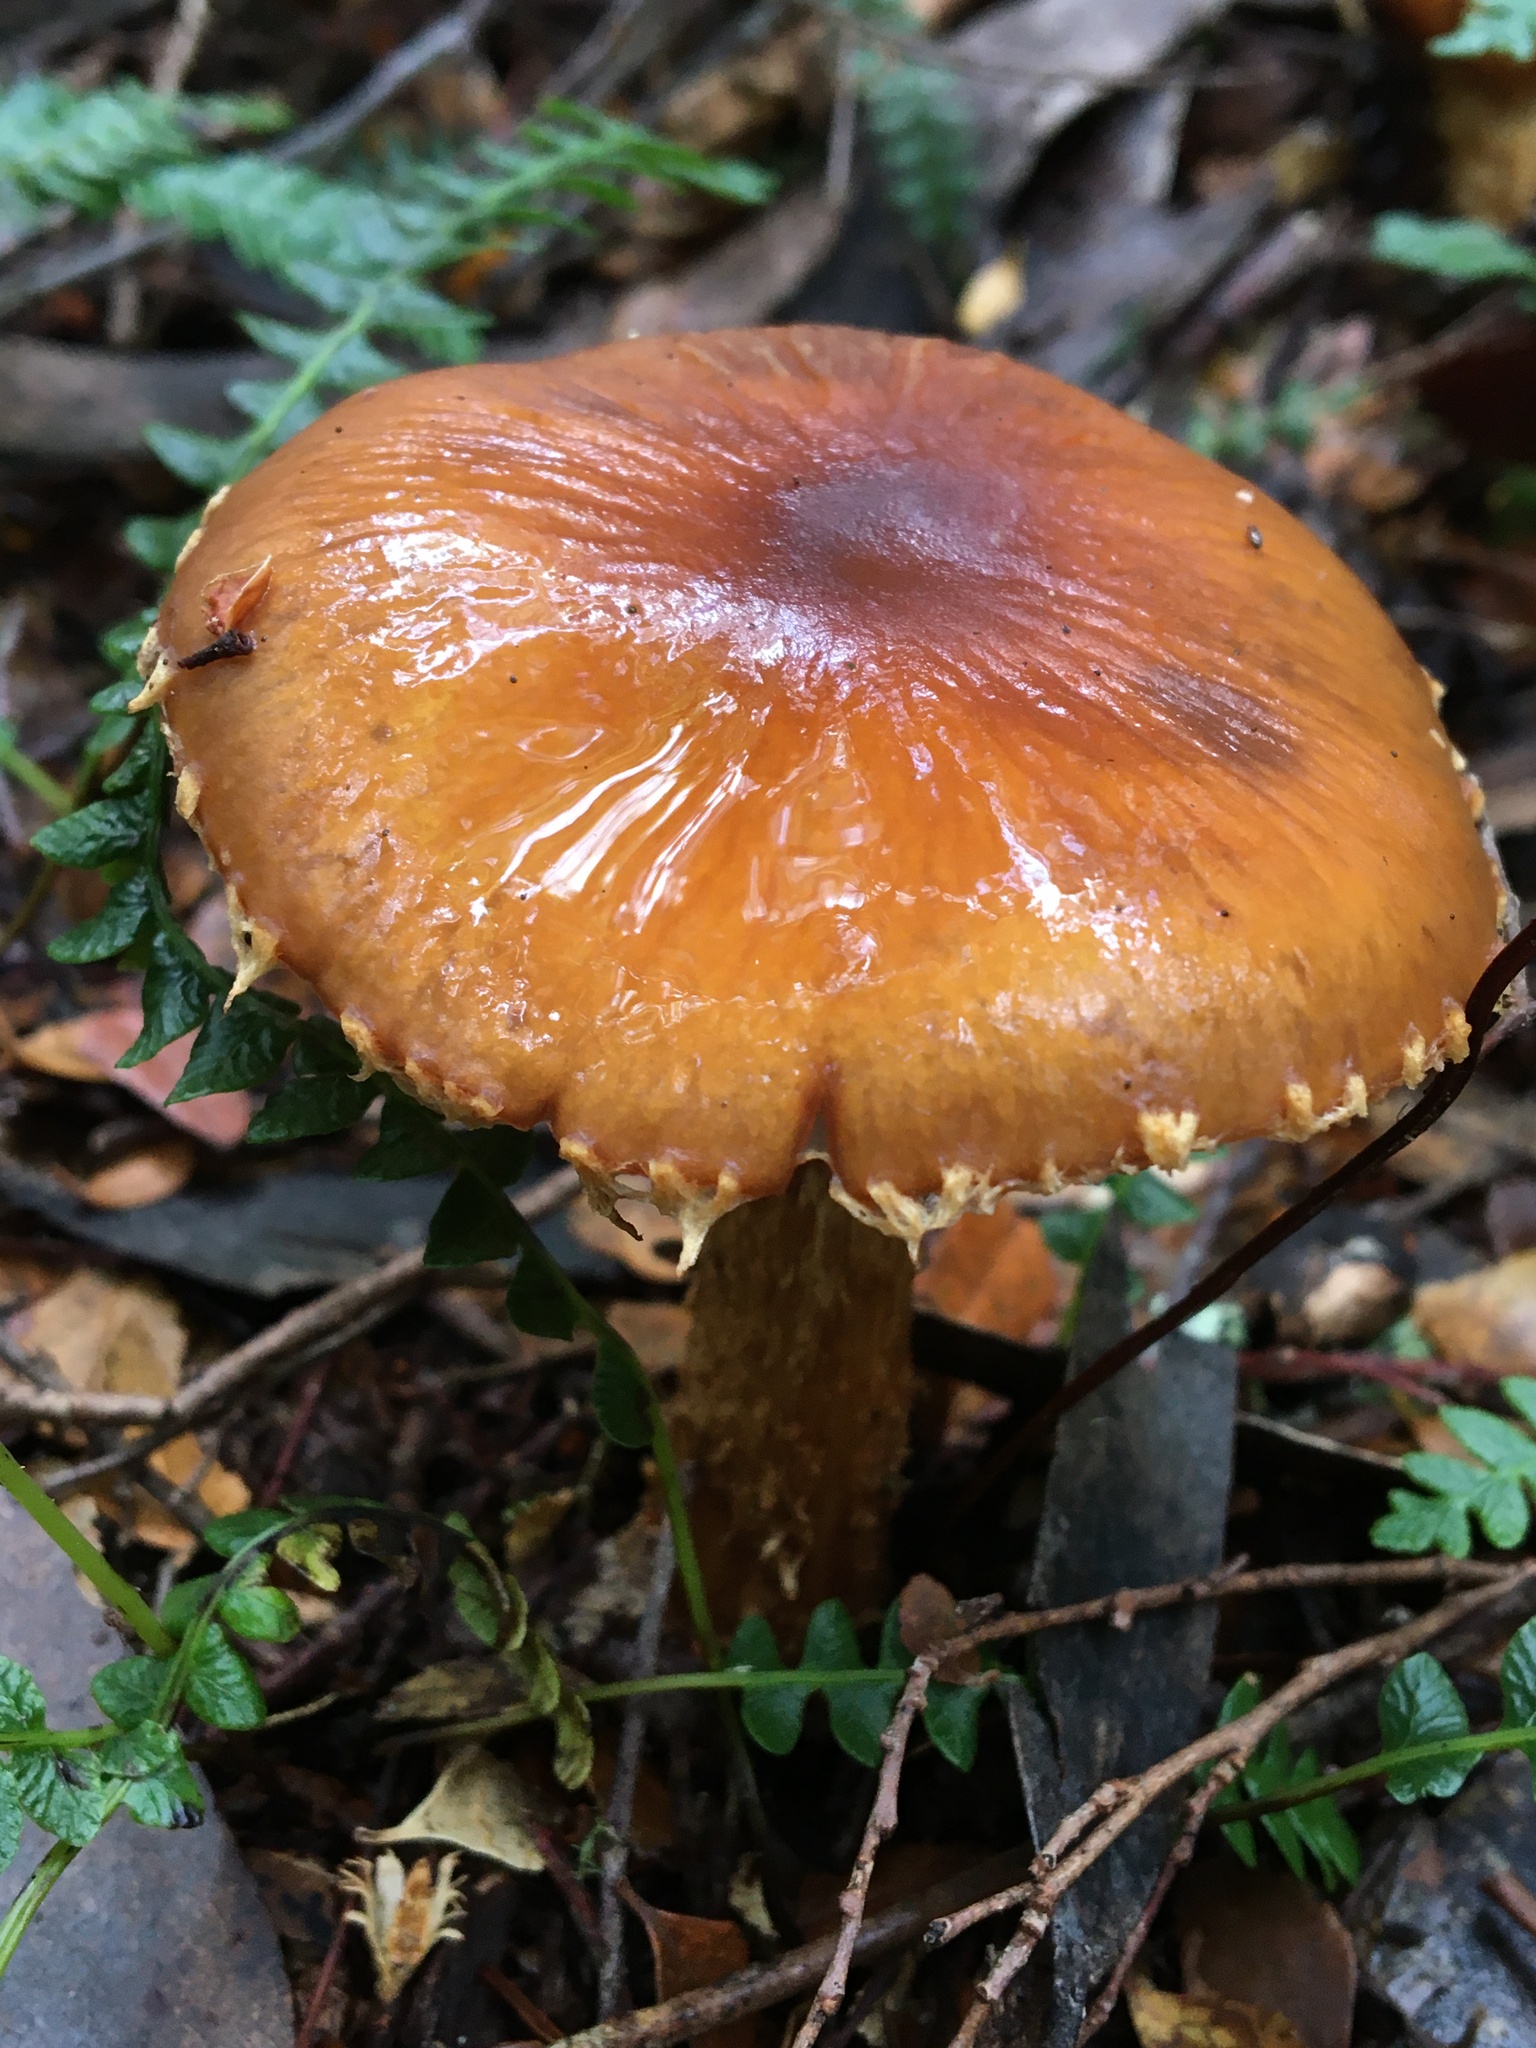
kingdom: Fungi
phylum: Basidiomycota
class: Agaricomycetes
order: Agaricales
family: Cortinariaceae
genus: Cortinarius
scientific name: Cortinarius perfoetens
